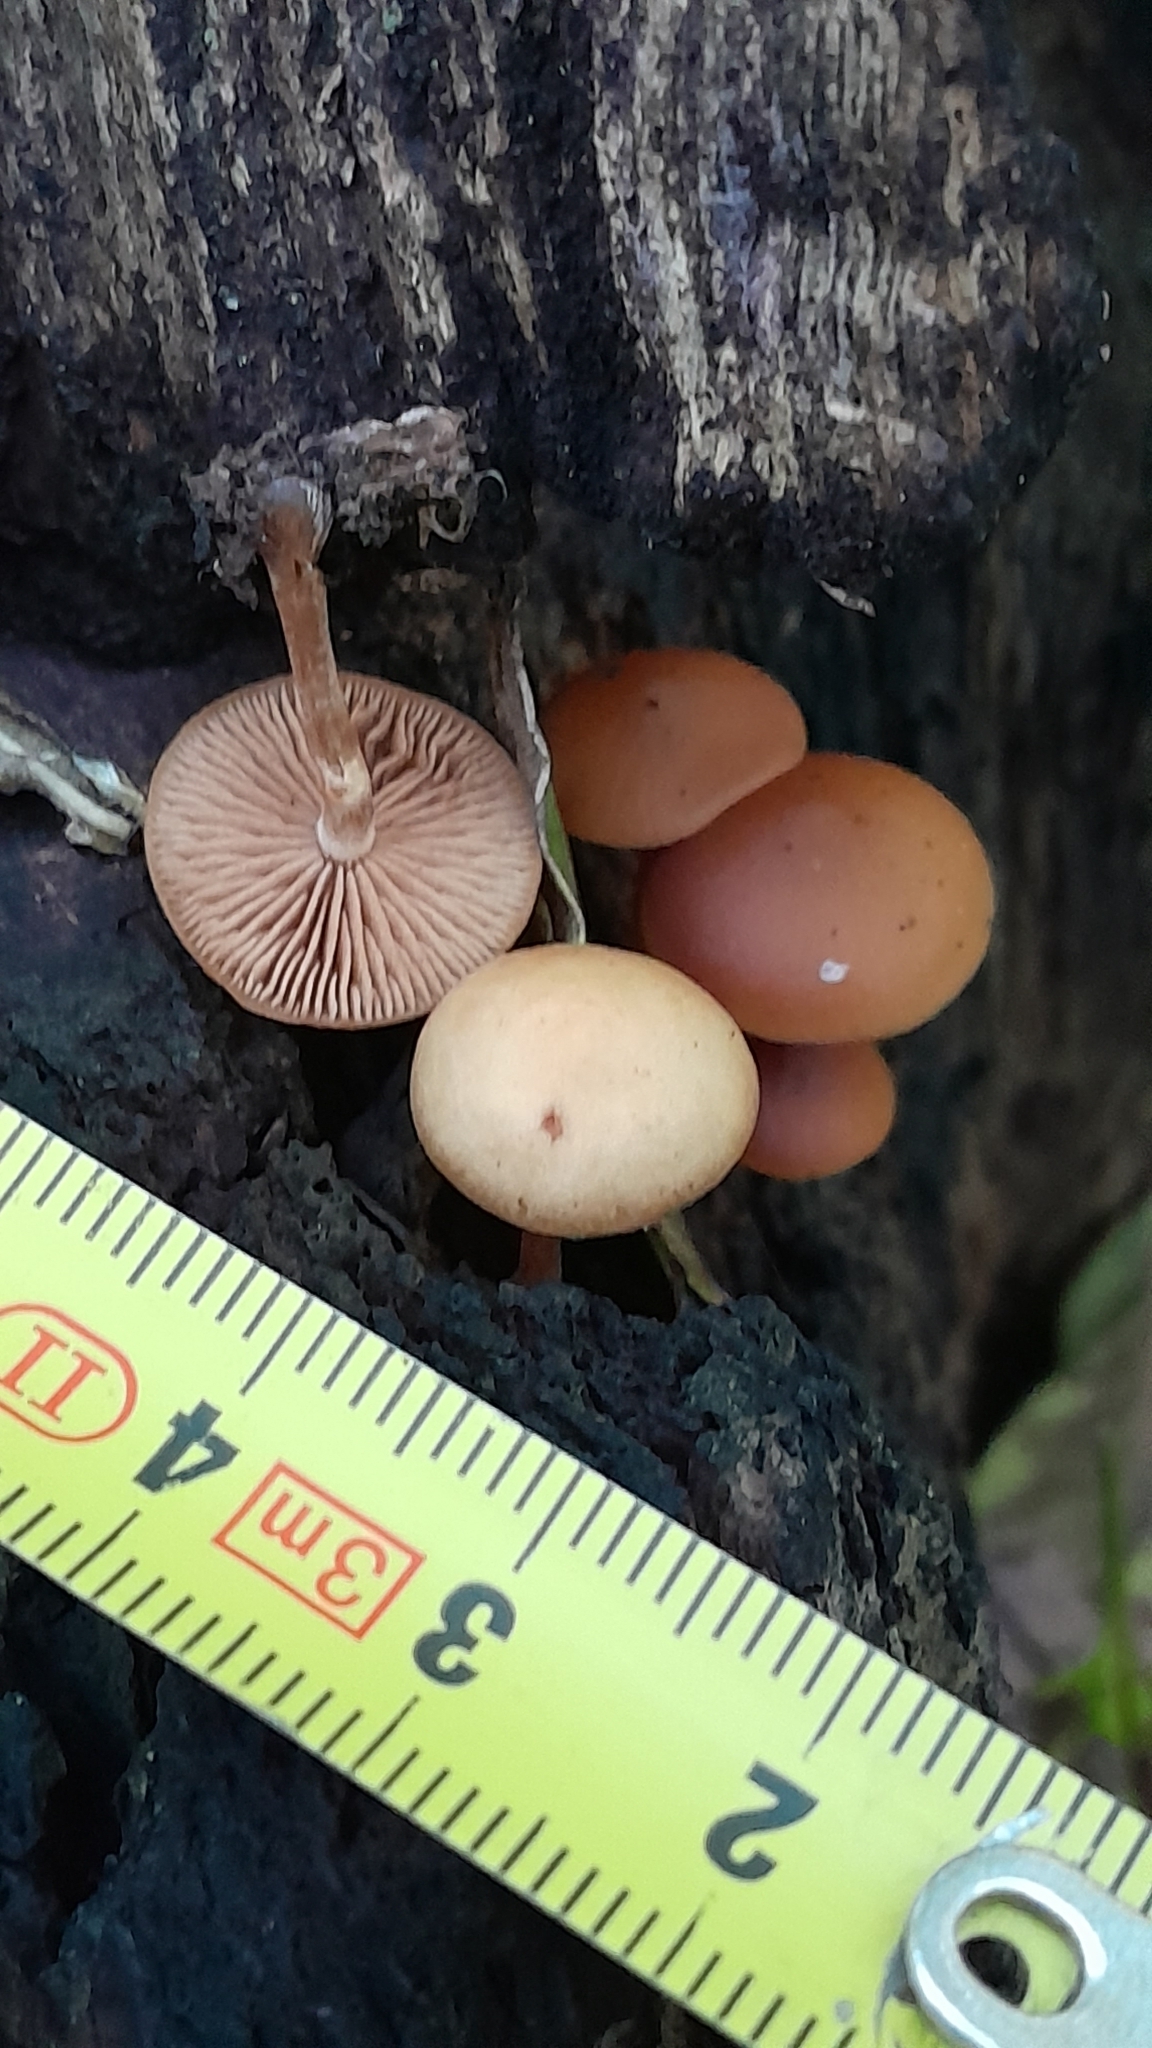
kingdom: Fungi
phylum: Basidiomycota
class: Agaricomycetes
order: Agaricales
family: Hymenogastraceae
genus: Galerina
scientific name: Galerina marginata
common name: Funeral bell
